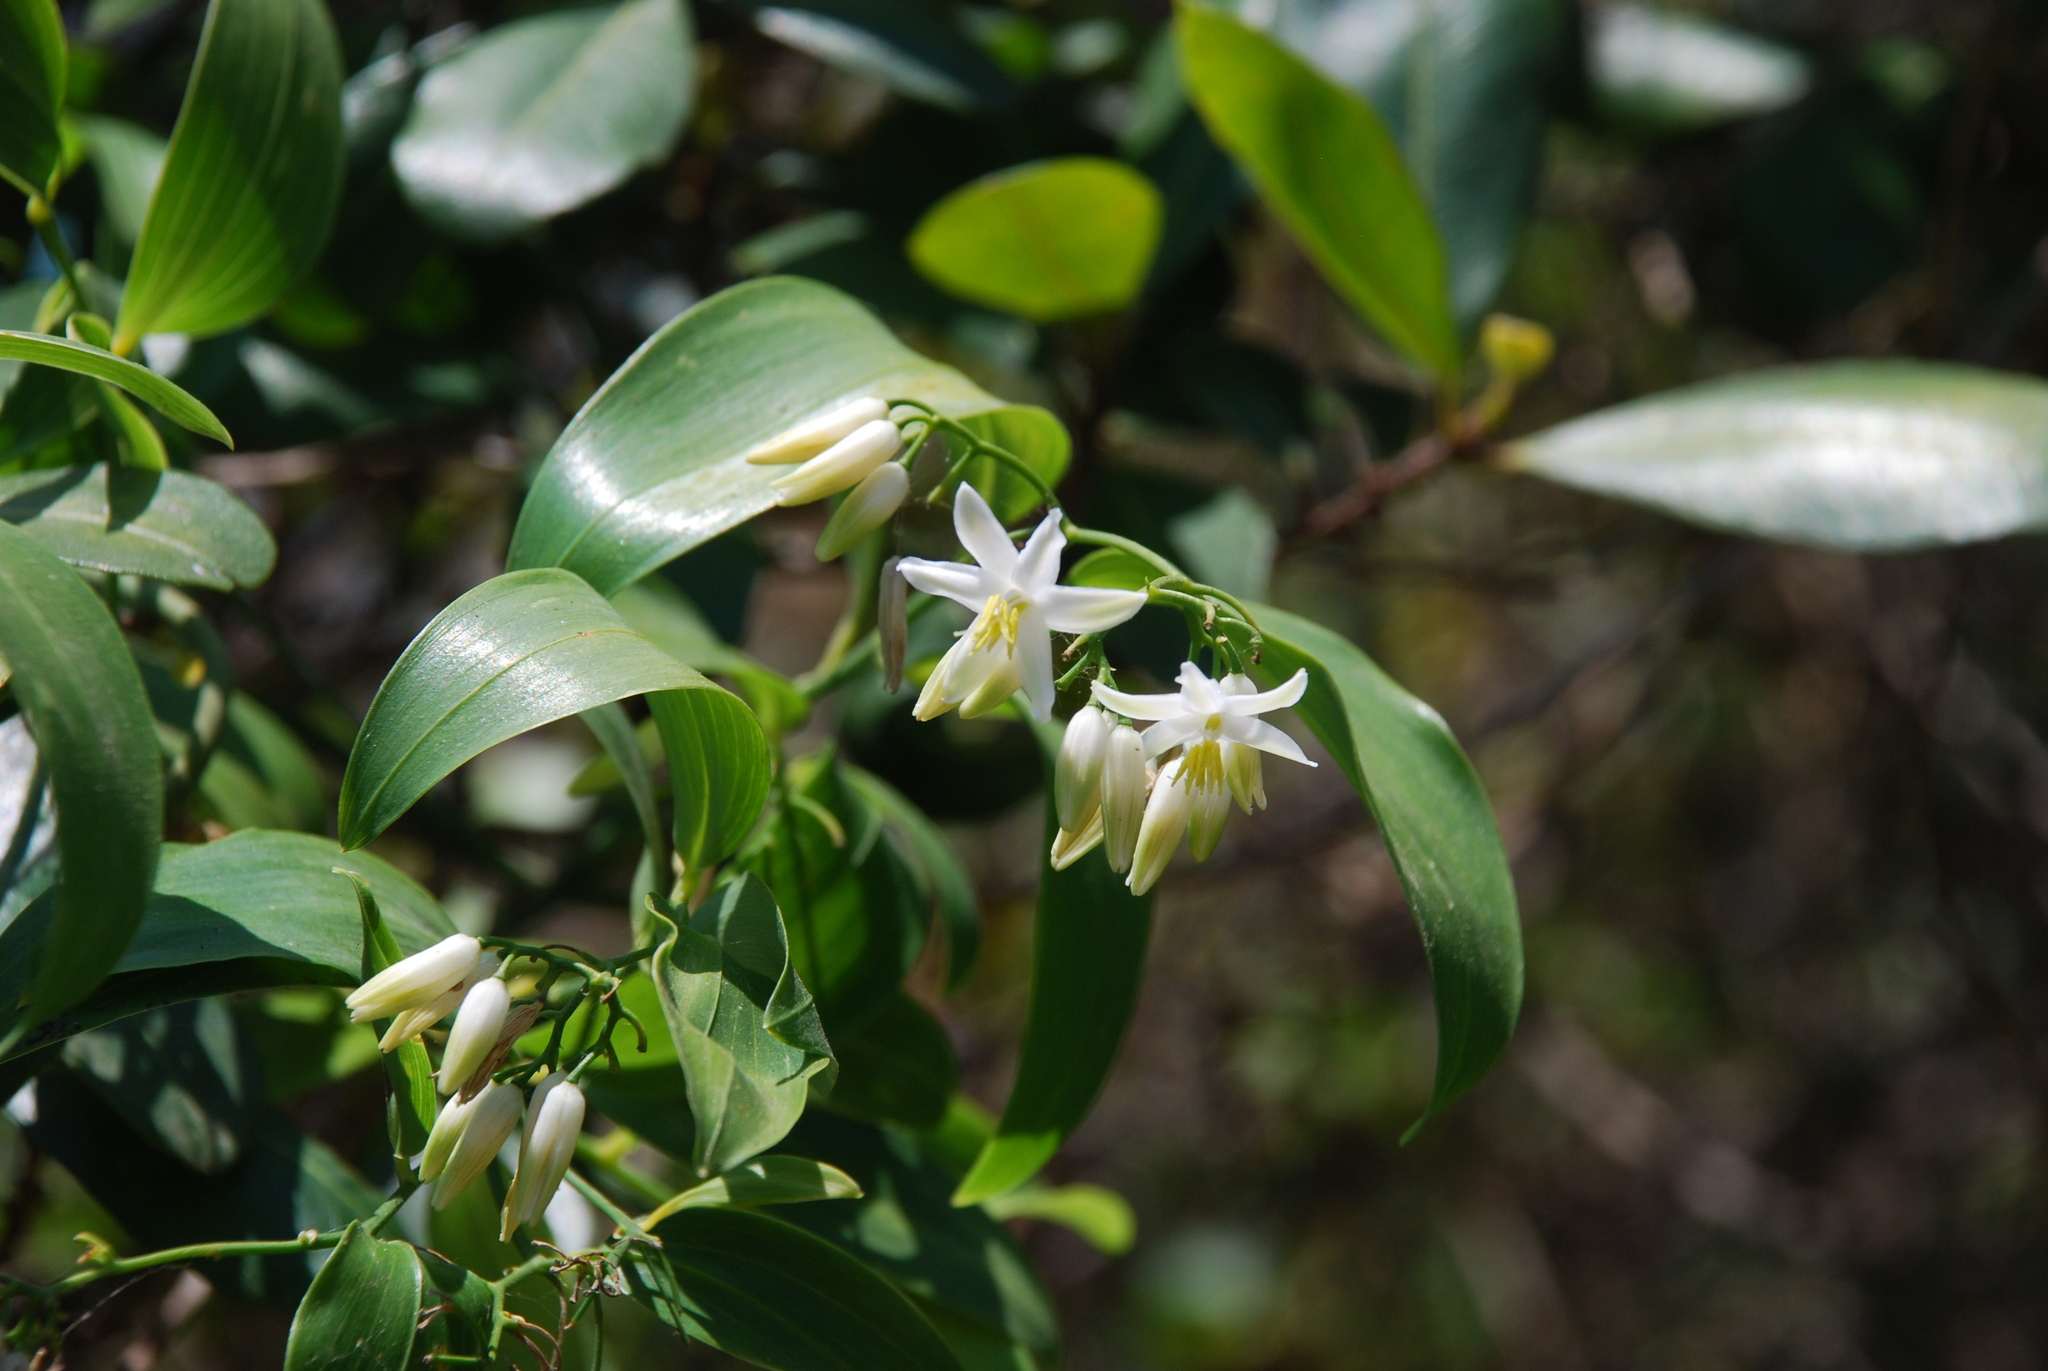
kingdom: Plantae
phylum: Tracheophyta
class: Liliopsida
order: Asparagales
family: Asphodelaceae
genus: Geitonoplesium
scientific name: Geitonoplesium cymosum
